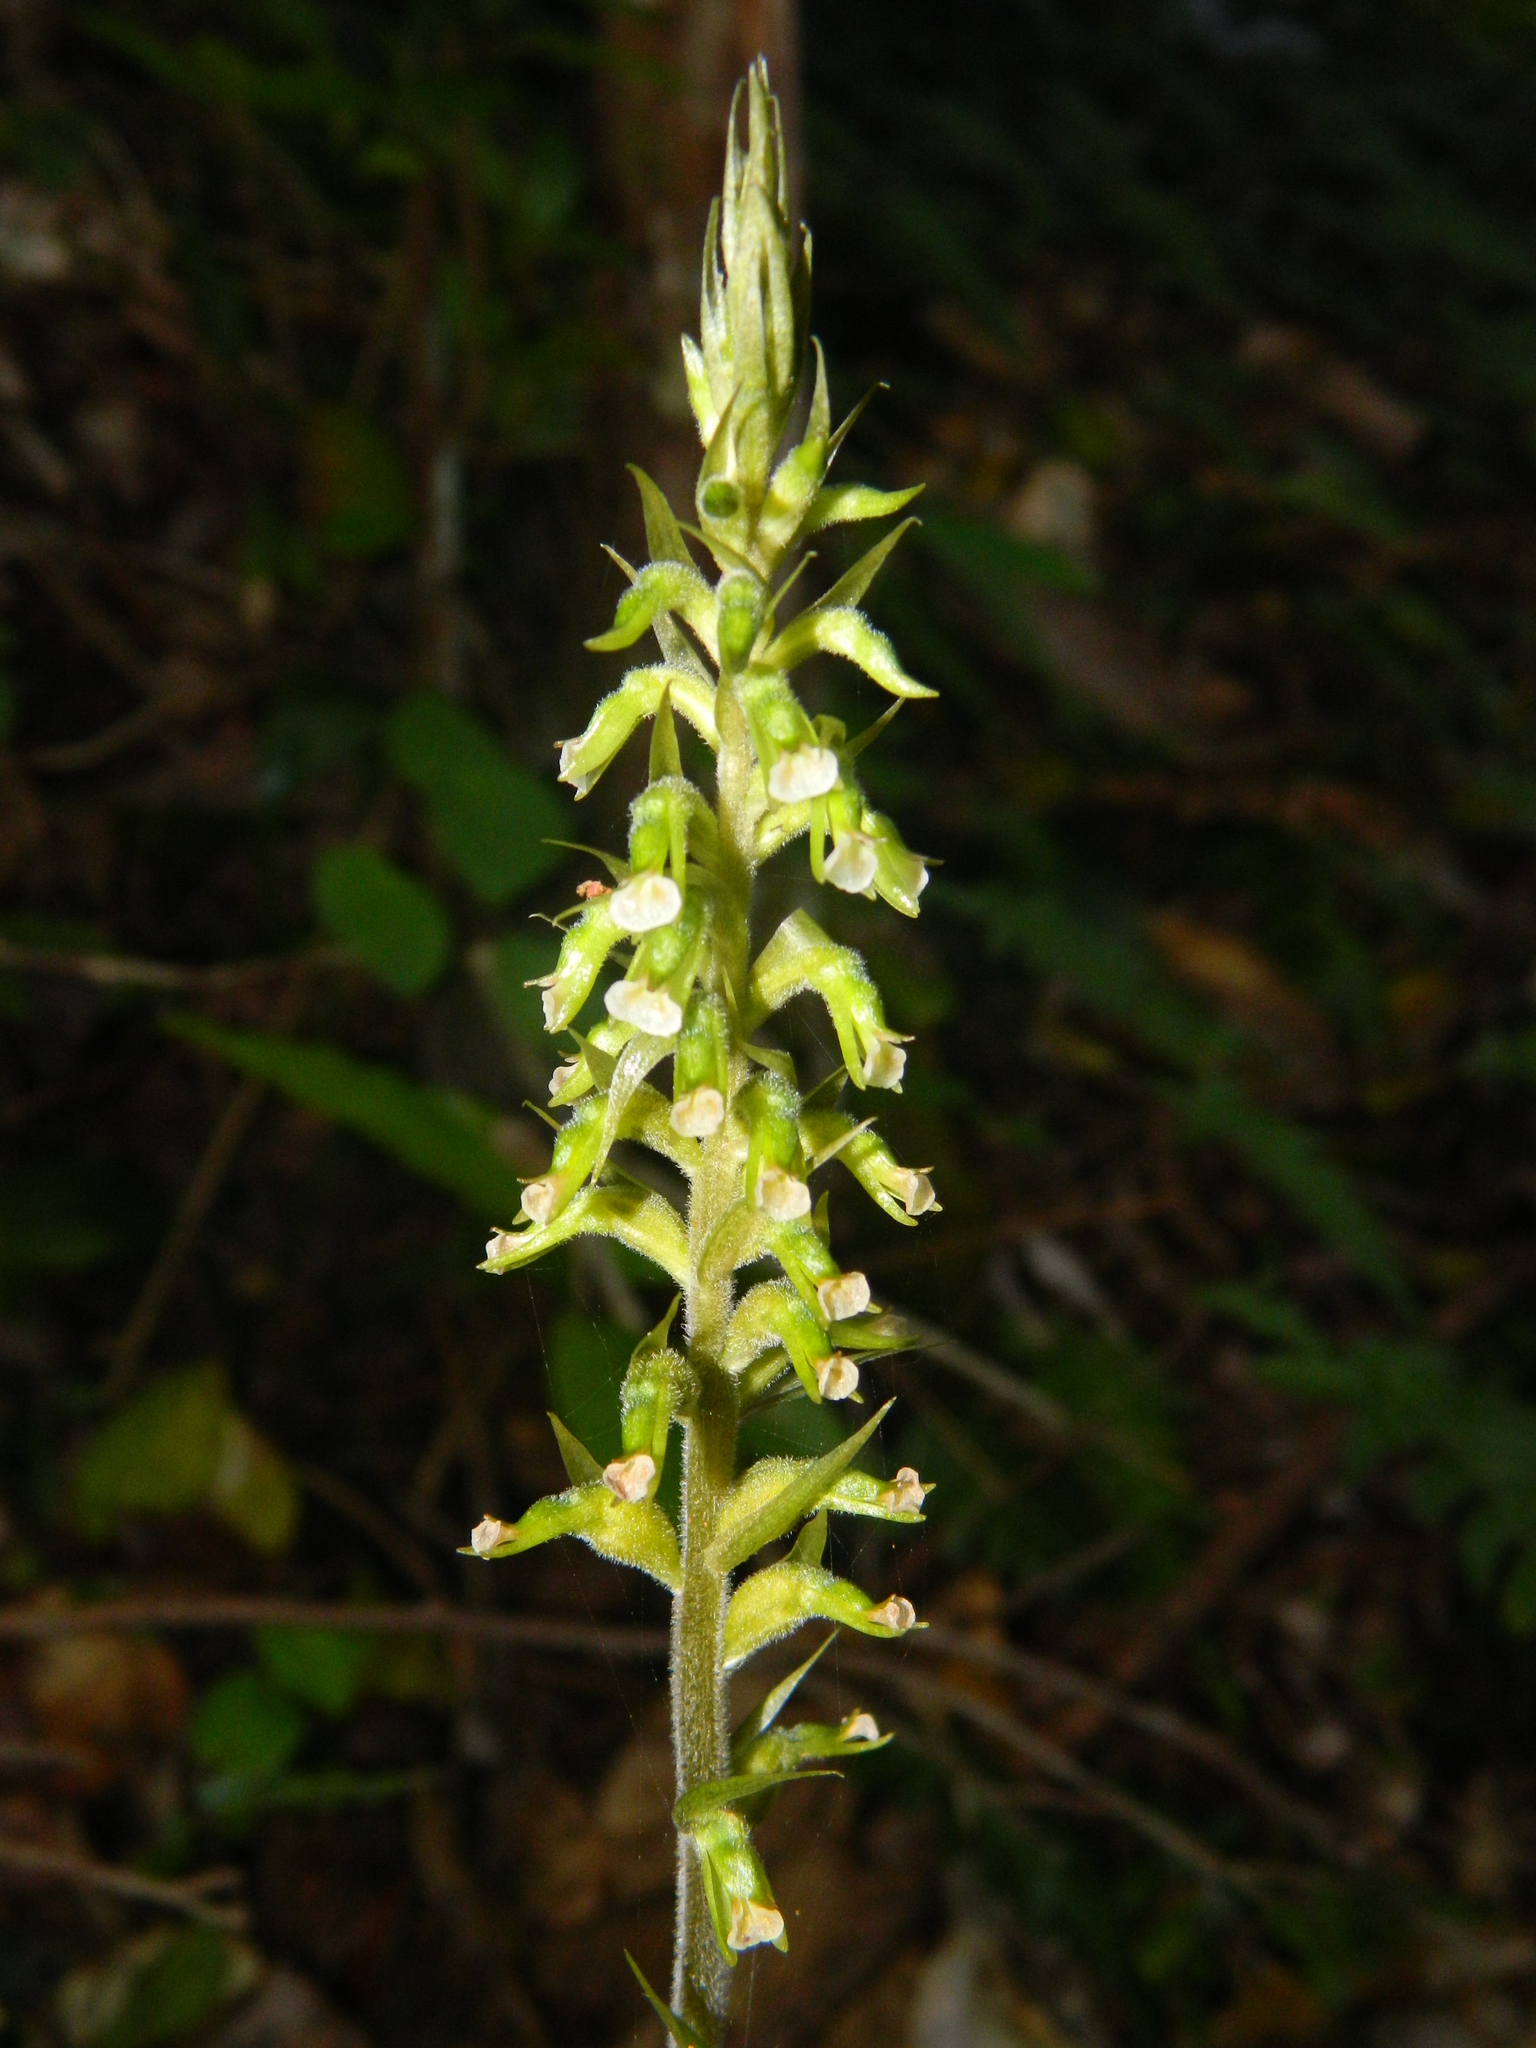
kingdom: Plantae
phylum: Tracheophyta
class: Liliopsida
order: Asparagales
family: Orchidaceae
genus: Cyclopogon
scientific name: Cyclopogon elatus
